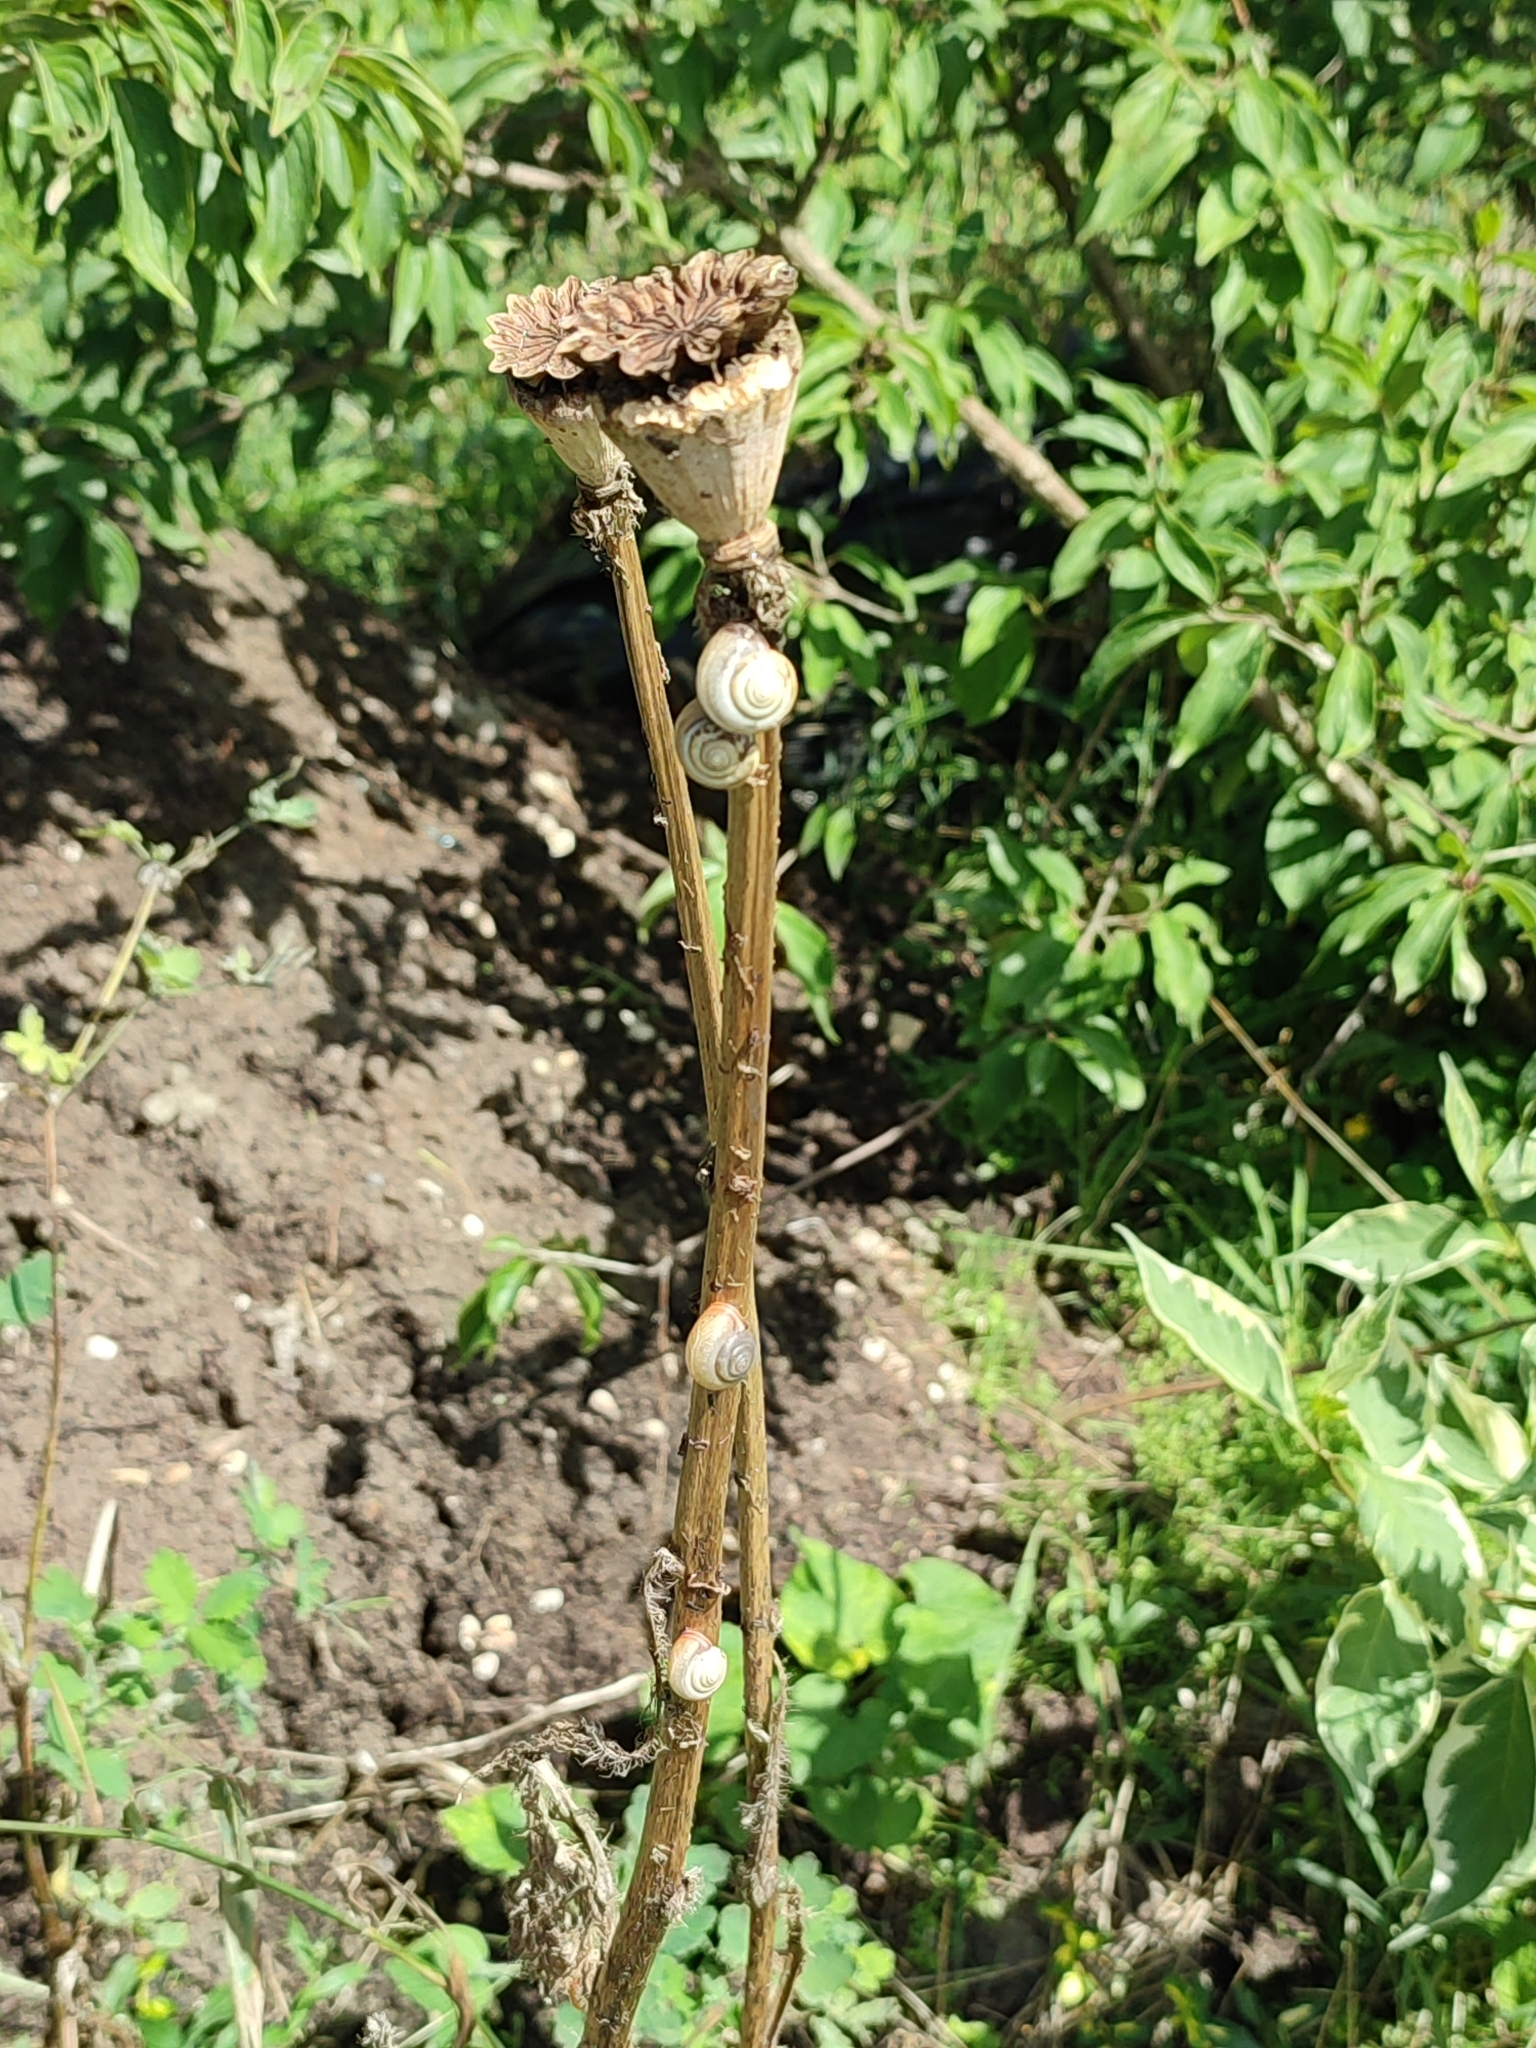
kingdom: Animalia
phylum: Mollusca
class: Gastropoda
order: Stylommatophora
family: Hygromiidae
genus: Monacha
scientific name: Monacha cartusiana
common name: Carthusian snail
